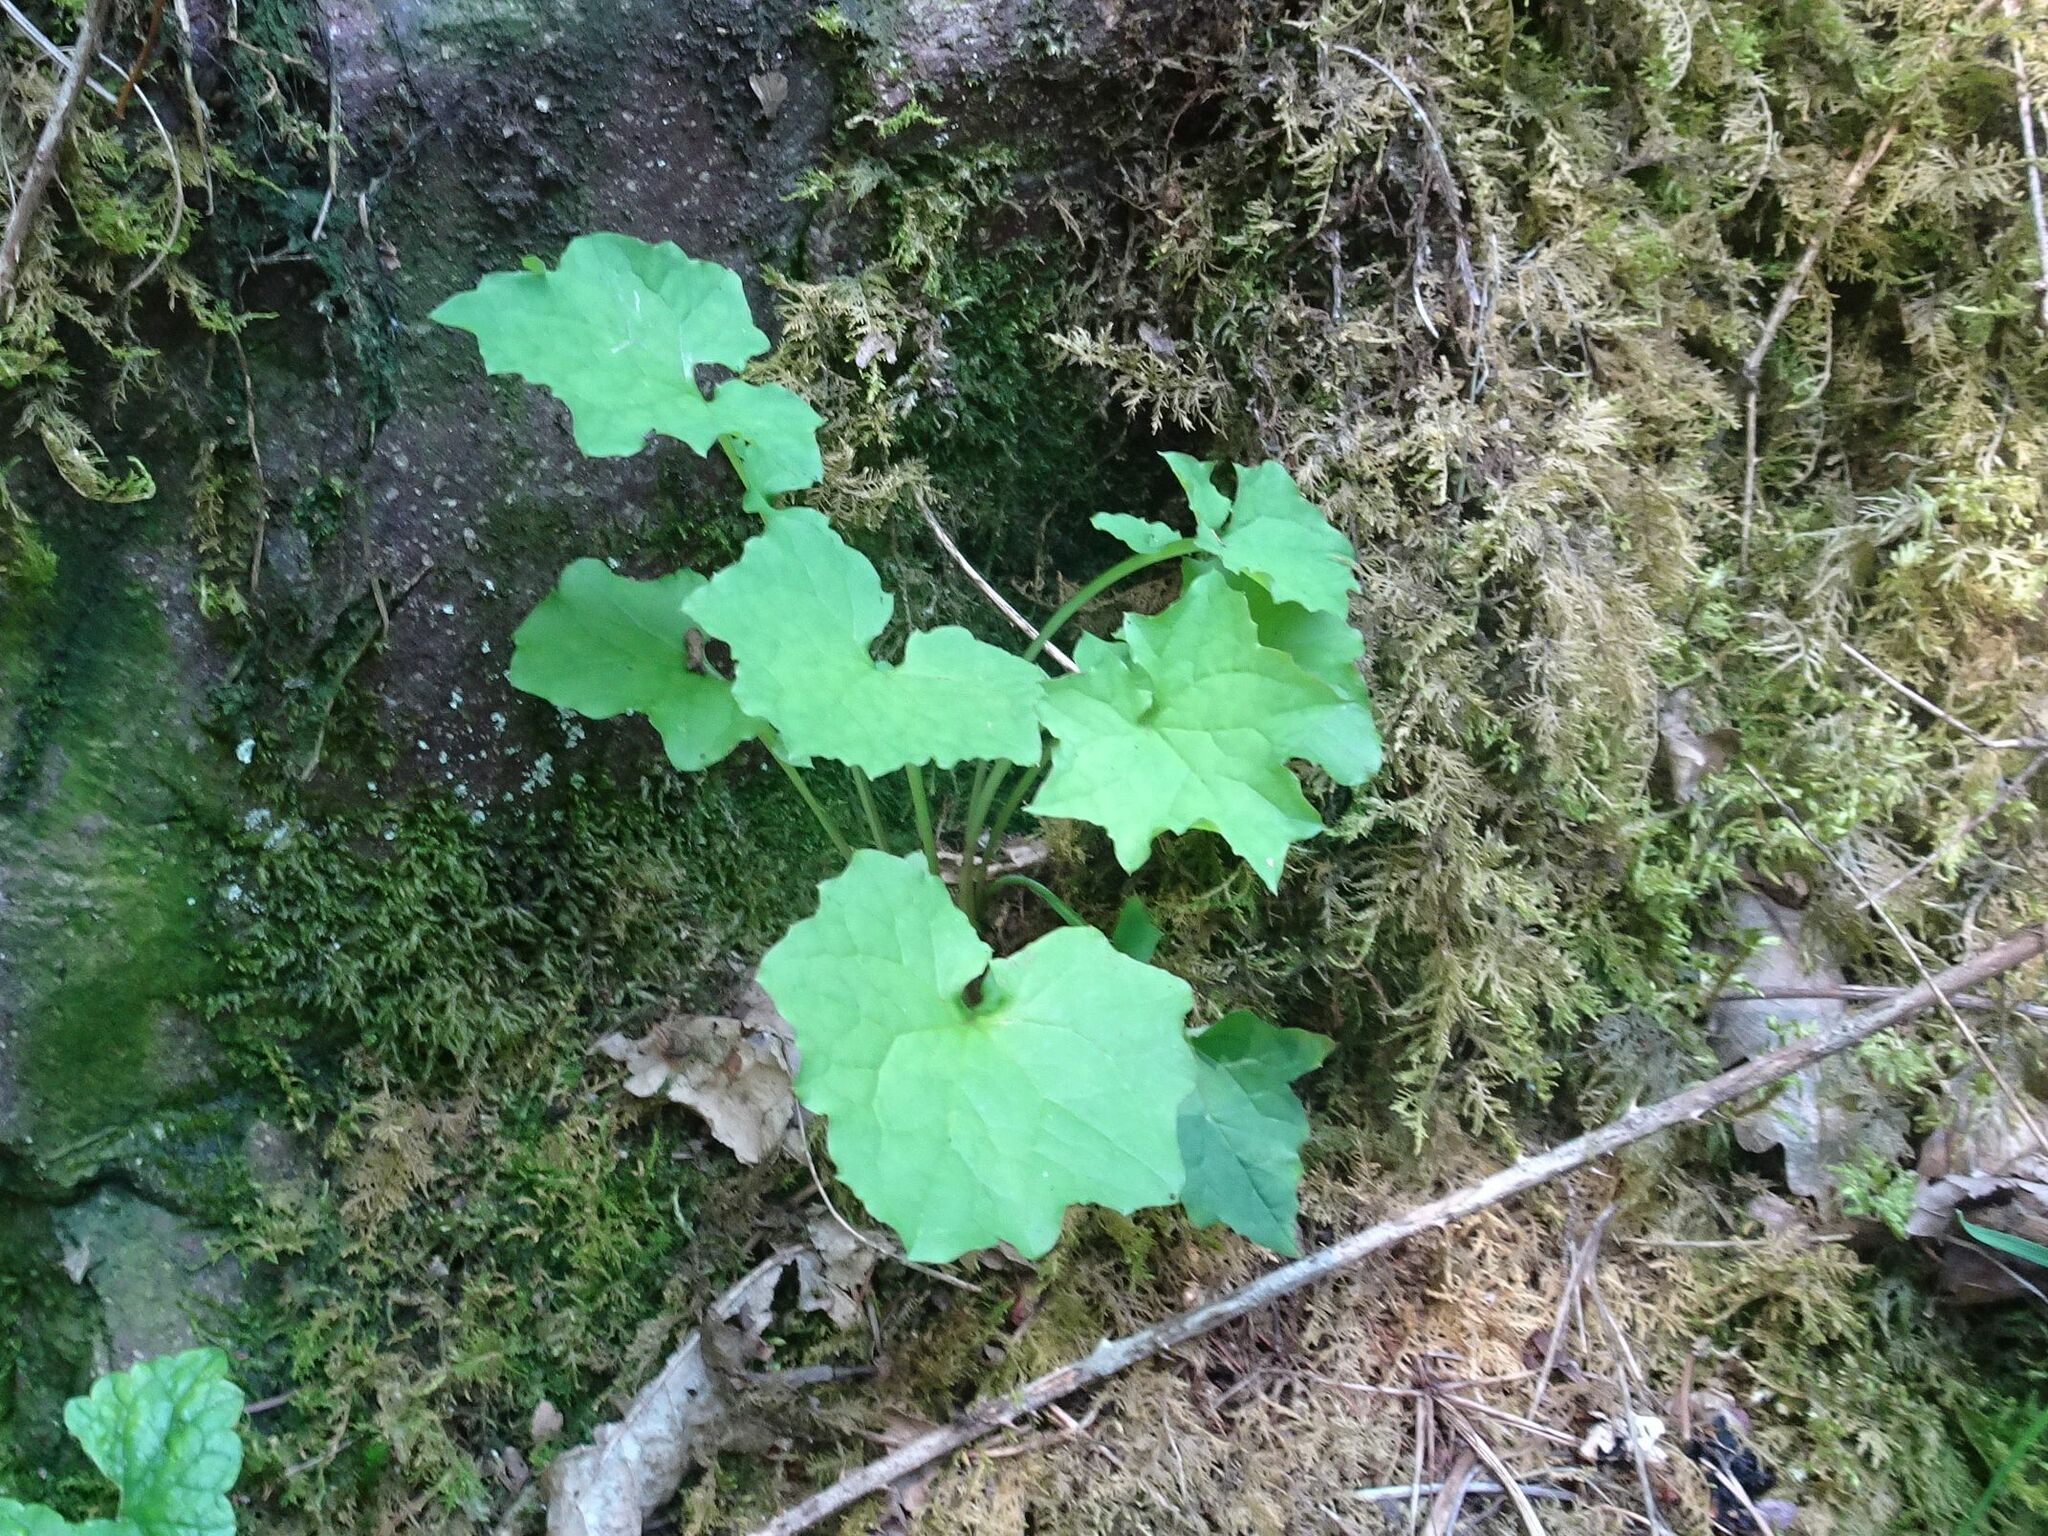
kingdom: Plantae
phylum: Tracheophyta
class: Magnoliopsida
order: Asterales
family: Asteraceae
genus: Mycelis
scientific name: Mycelis muralis
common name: Wall lettuce
